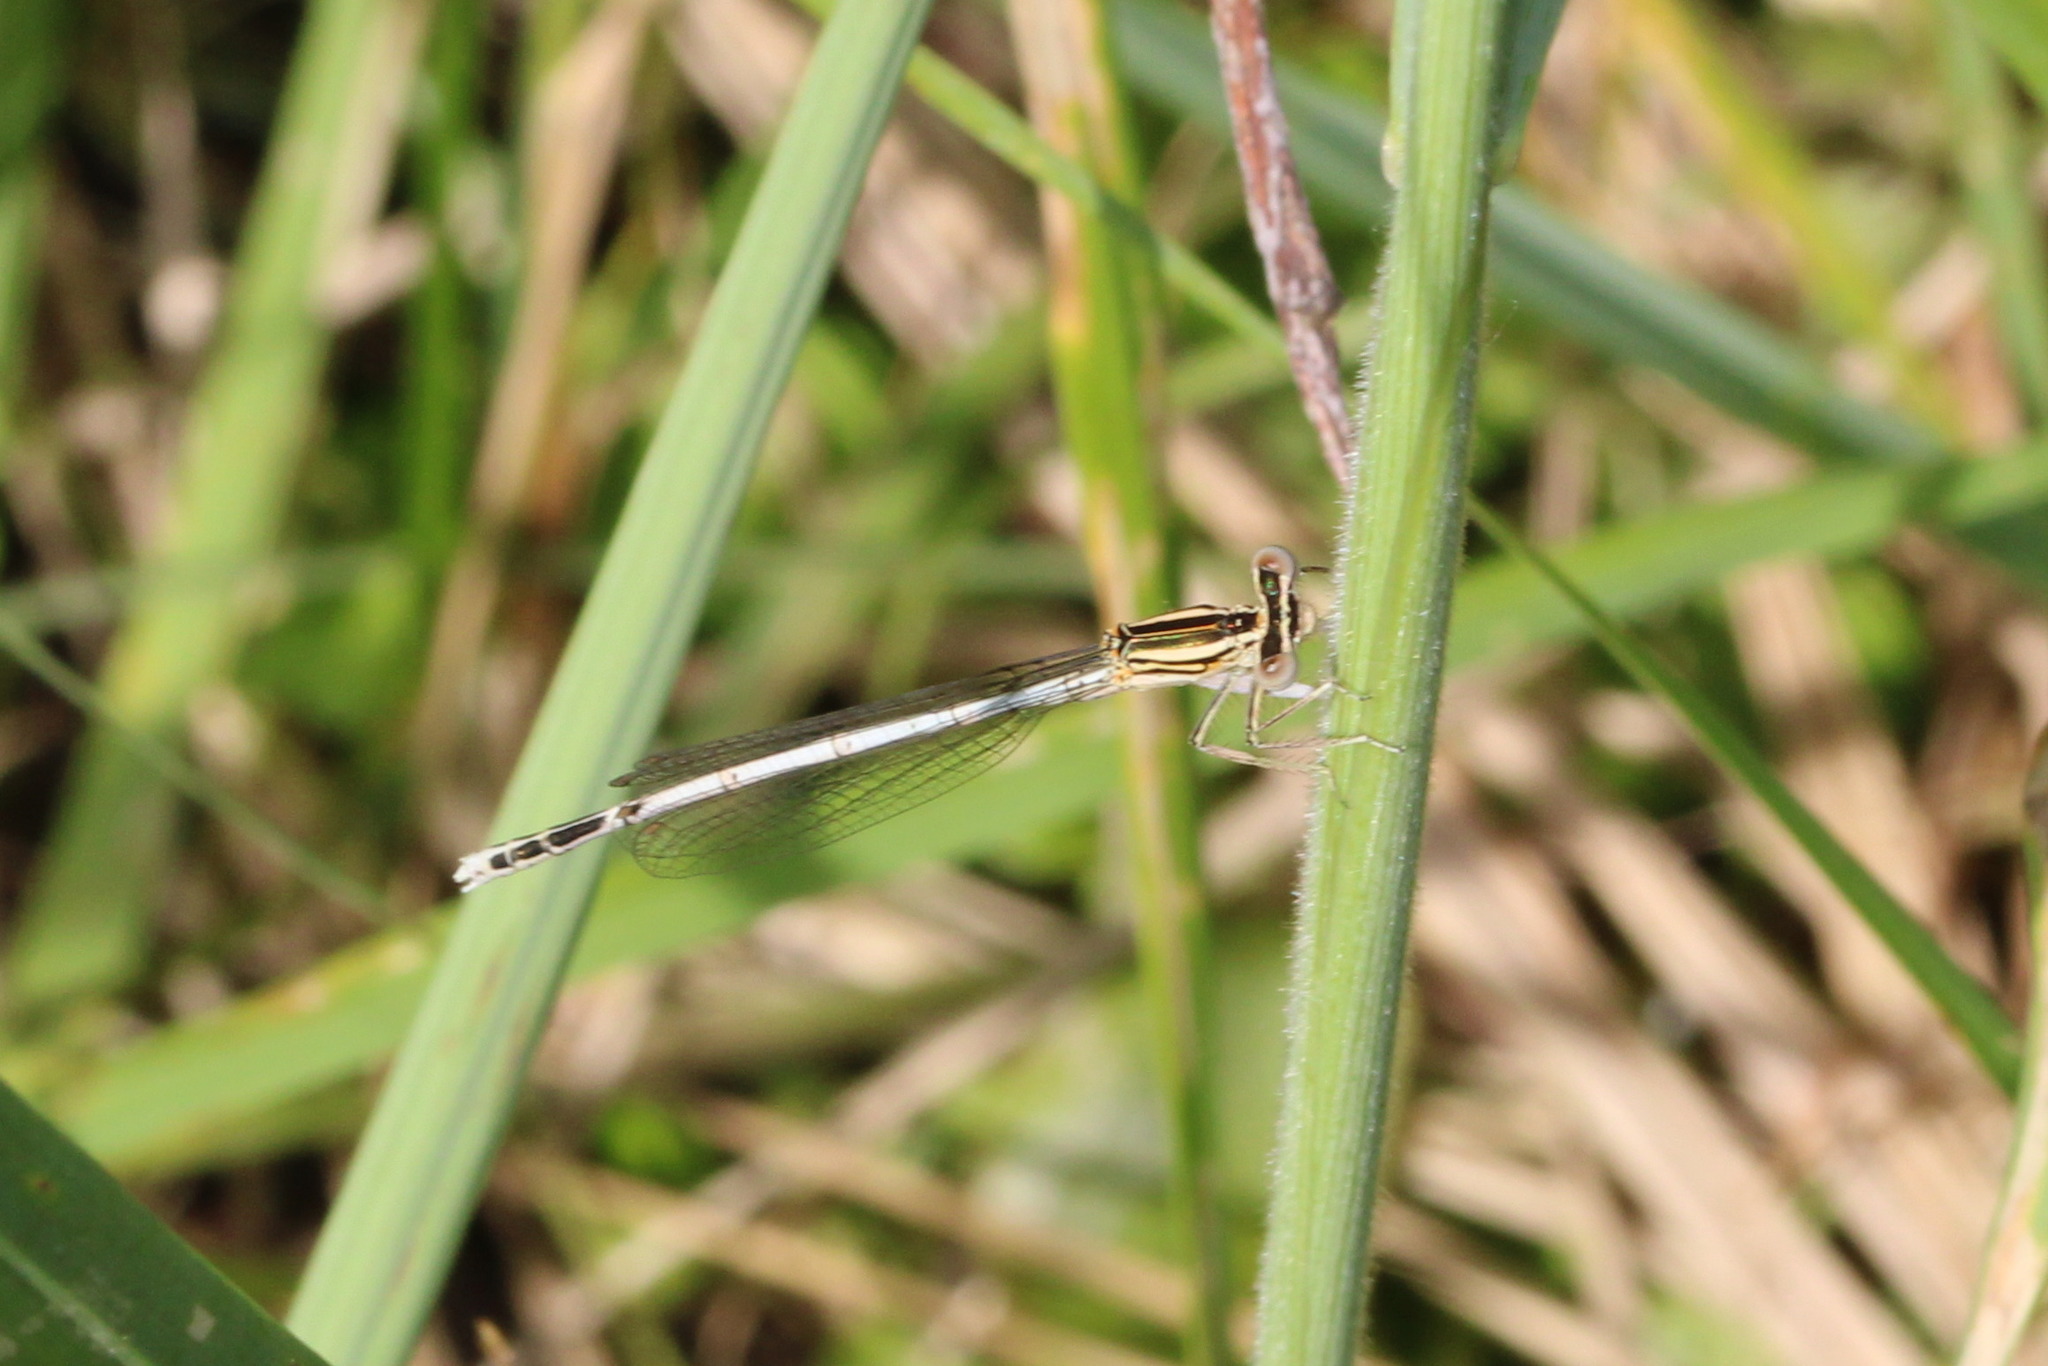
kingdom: Animalia
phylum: Arthropoda
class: Insecta
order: Odonata
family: Platycnemididae
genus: Platycnemis
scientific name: Platycnemis pennipes
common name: White-legged damselfly
